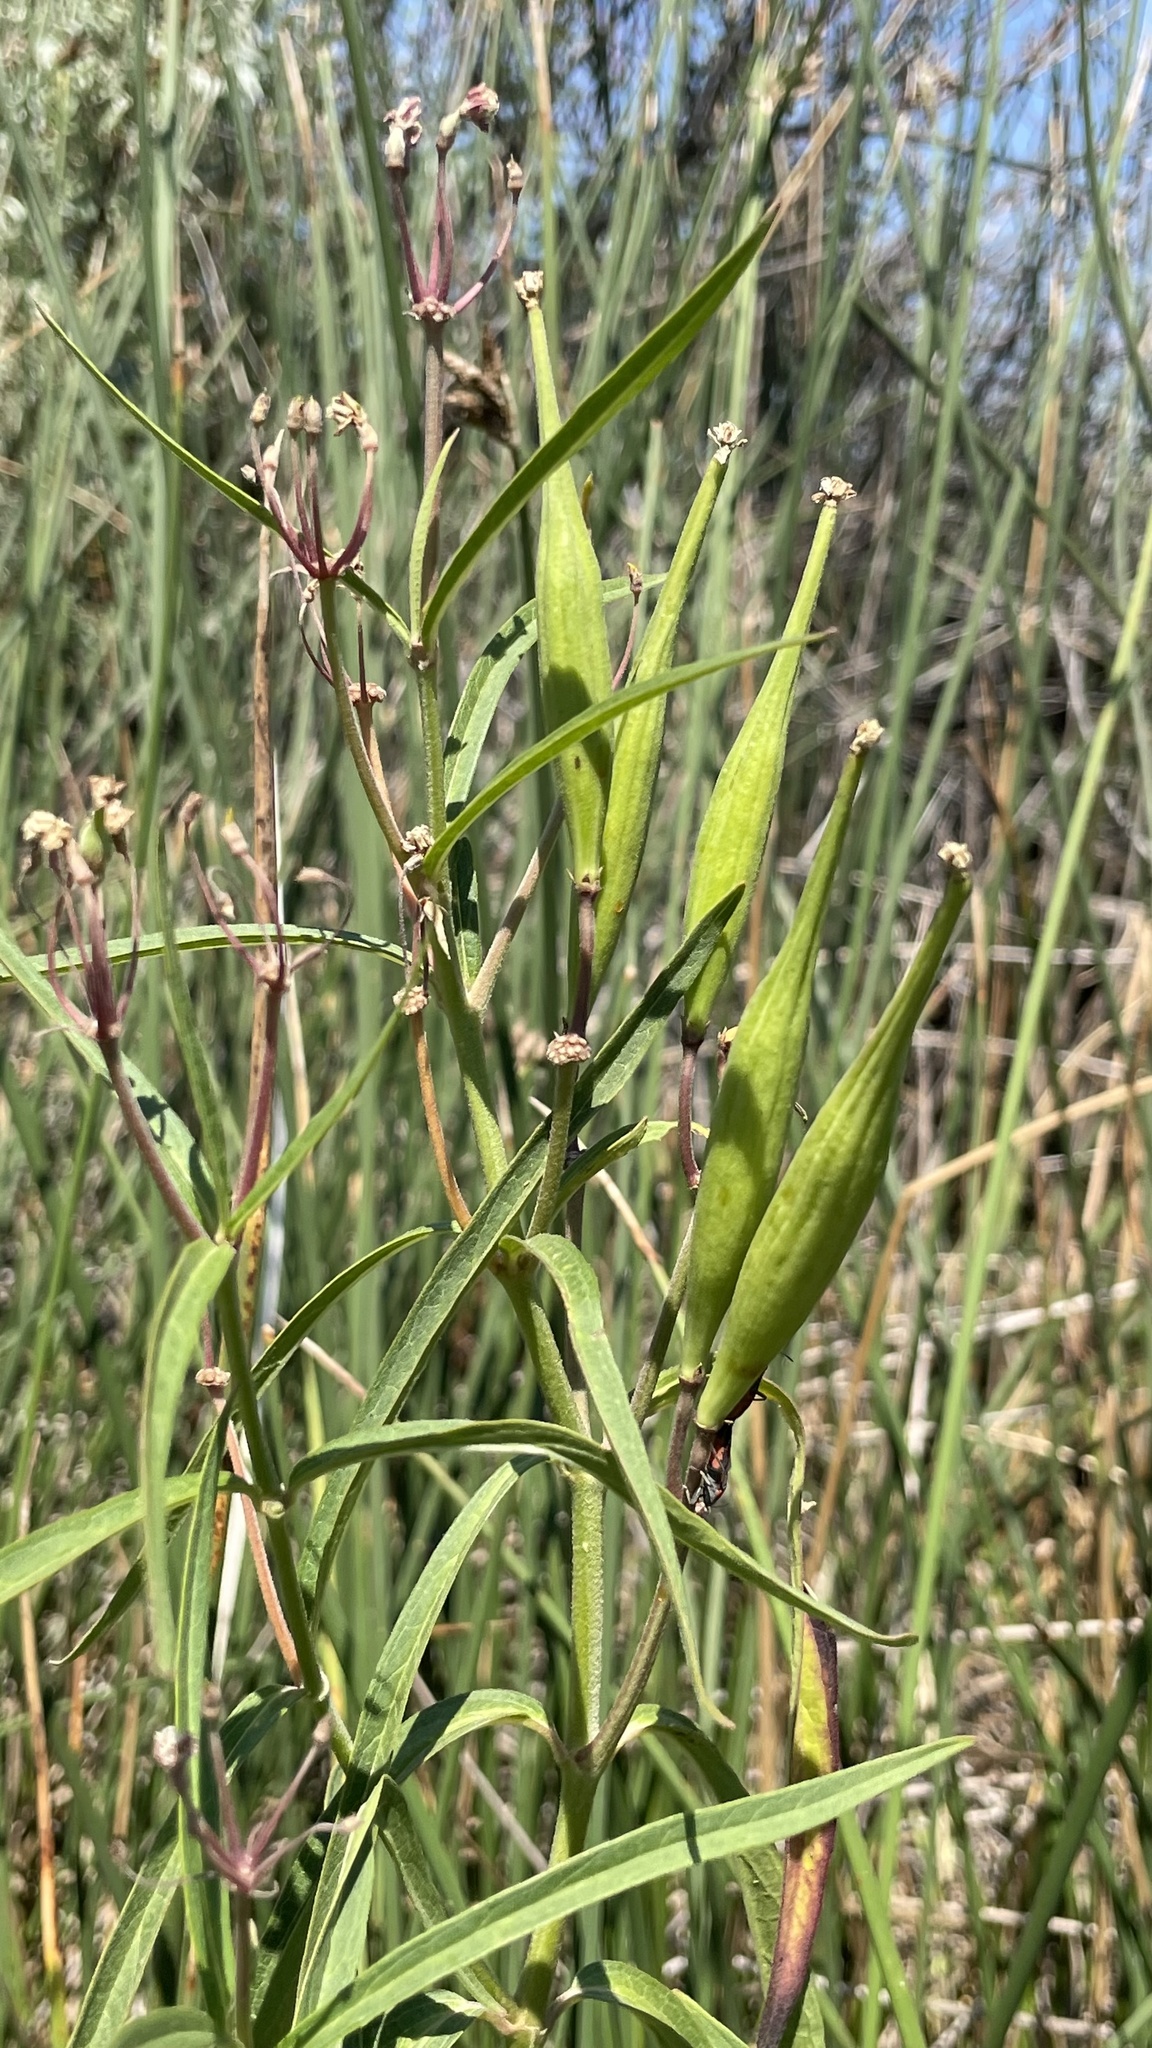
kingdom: Plantae
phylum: Tracheophyta
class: Magnoliopsida
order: Gentianales
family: Apocynaceae
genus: Asclepias
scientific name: Asclepias incarnata
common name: Swamp milkweed
